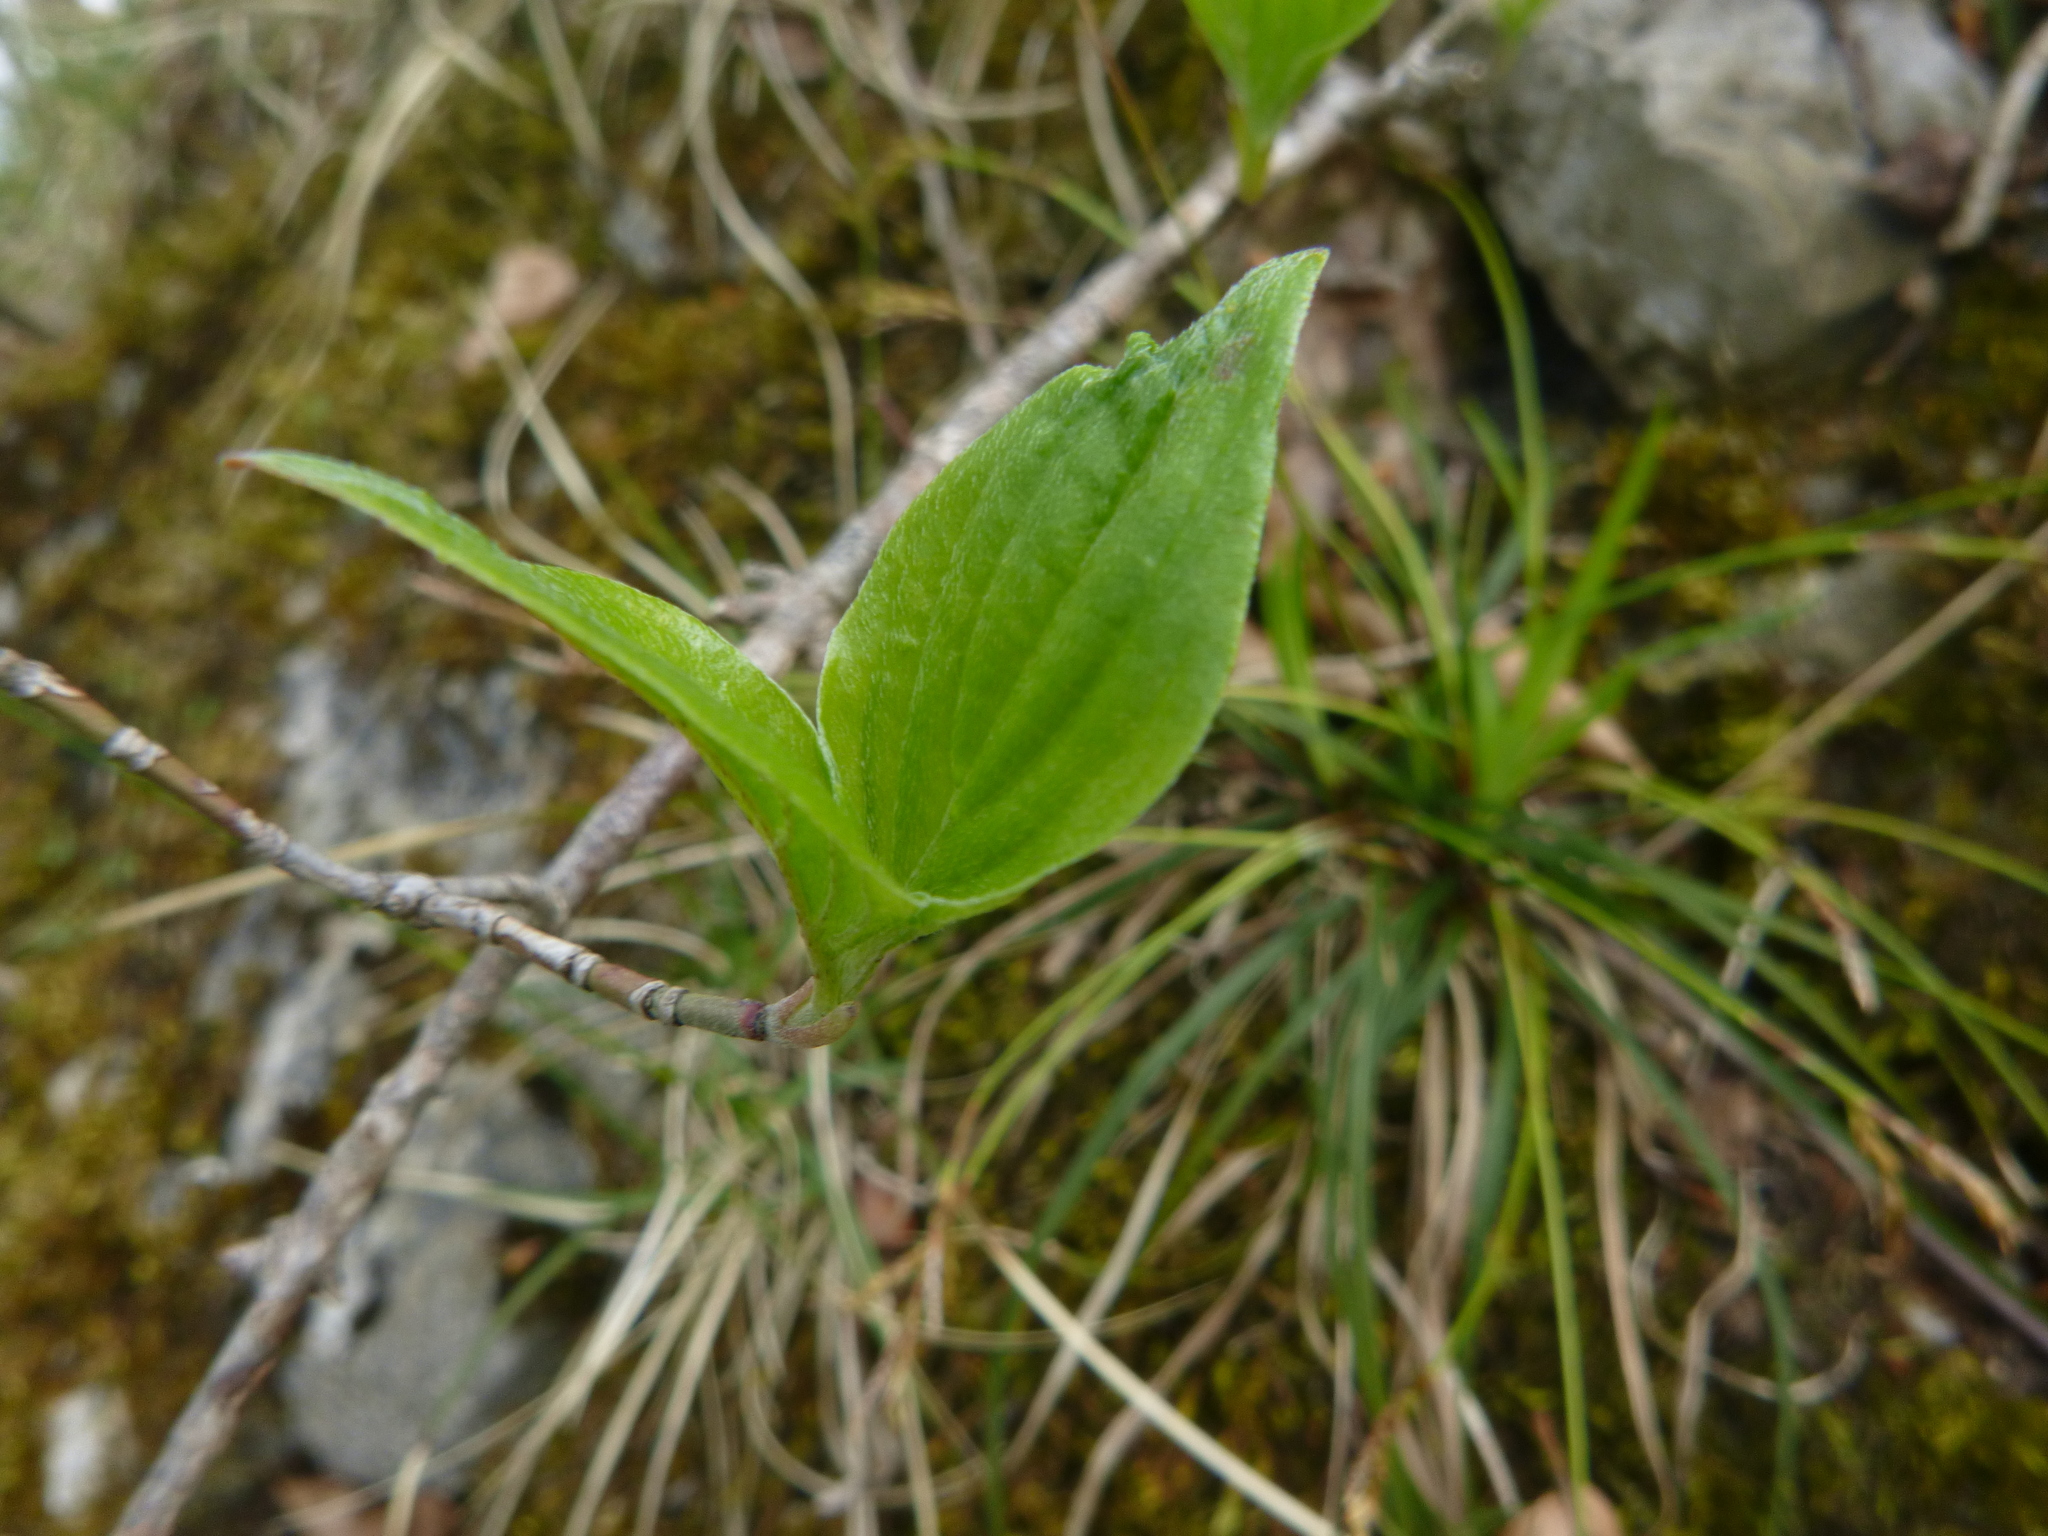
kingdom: Plantae
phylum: Tracheophyta
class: Magnoliopsida
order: Cornales
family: Cornaceae
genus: Cornus
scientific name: Cornus mas
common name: Cornelian-cherry
